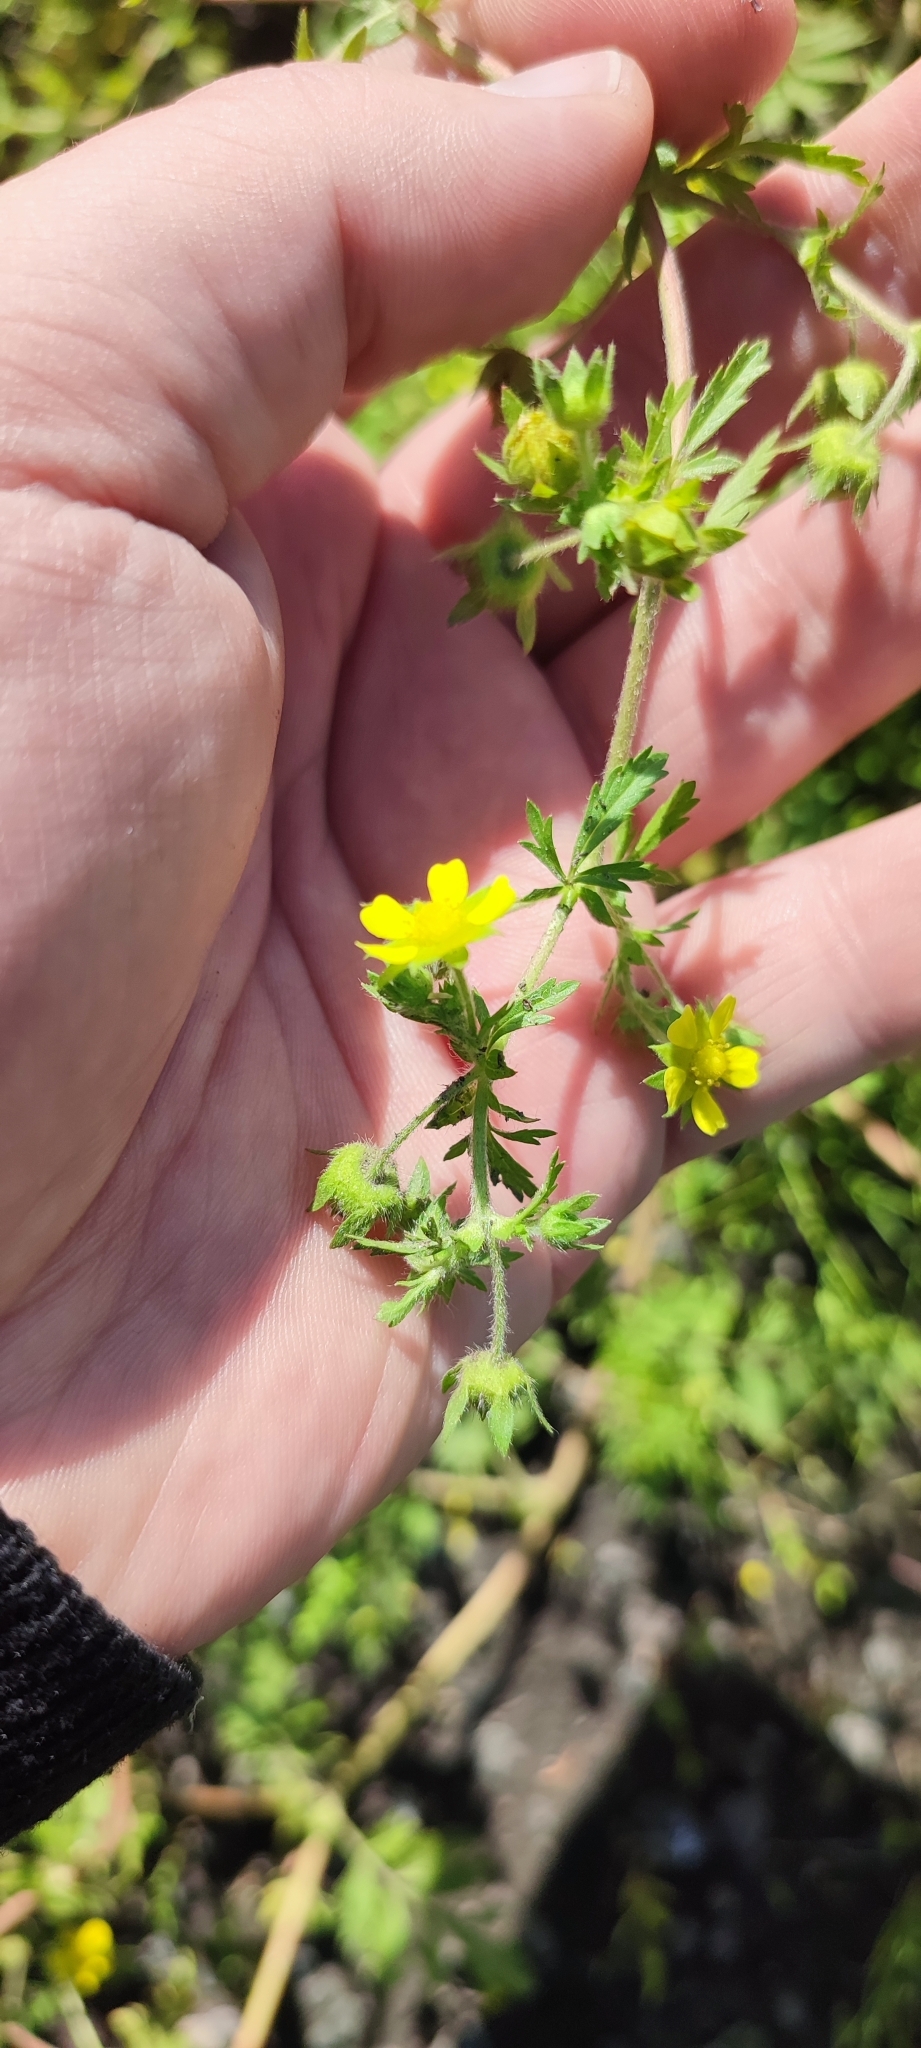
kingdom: Plantae
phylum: Tracheophyta
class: Magnoliopsida
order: Rosales
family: Rosaceae
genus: Potentilla
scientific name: Potentilla supina
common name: Prostrate cinquefoil
